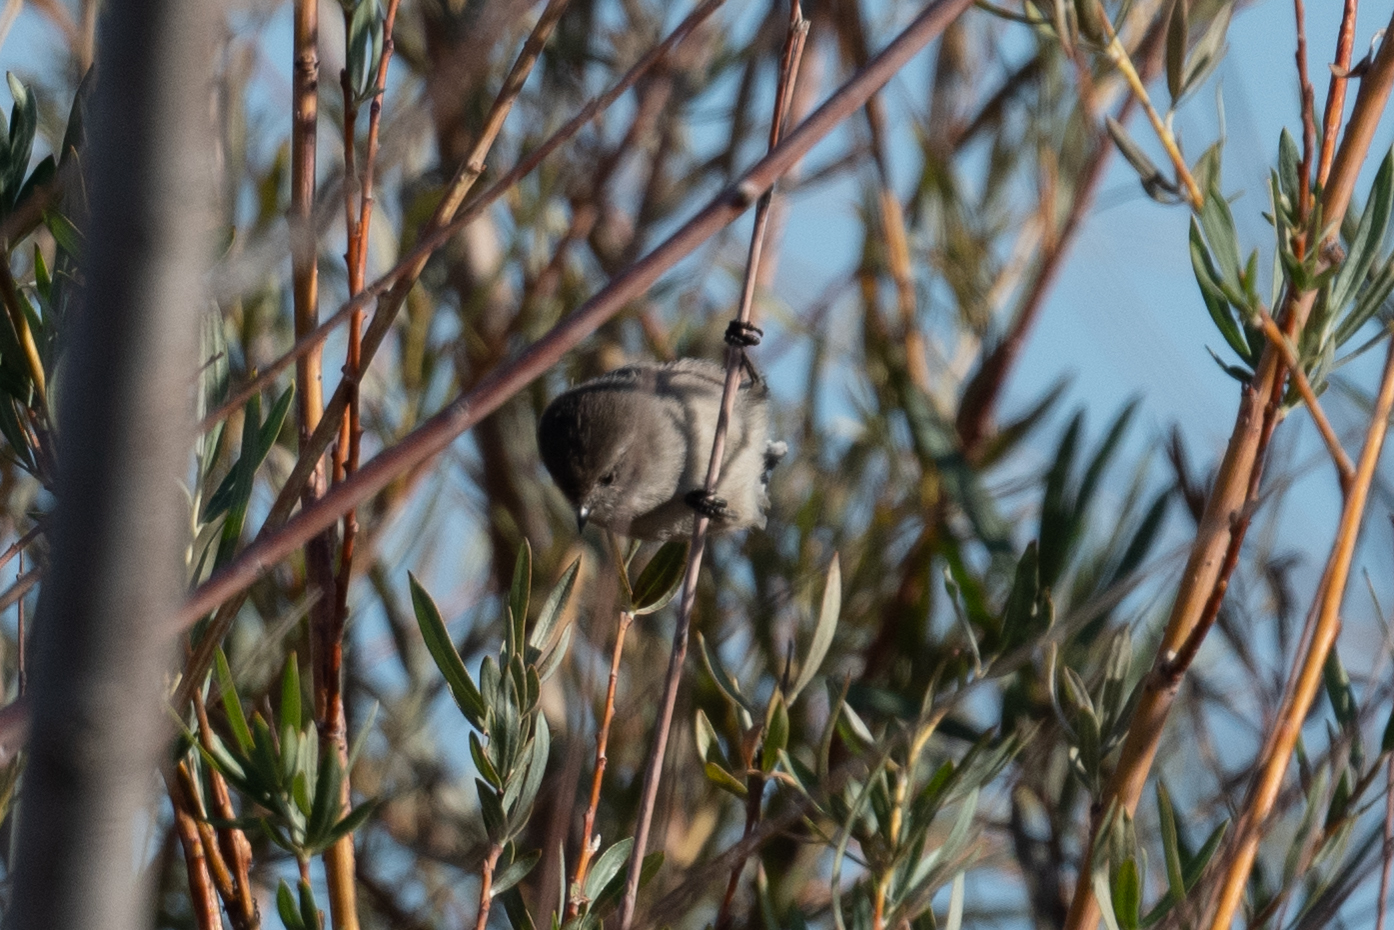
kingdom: Animalia
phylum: Chordata
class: Aves
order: Passeriformes
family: Aegithalidae
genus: Psaltriparus
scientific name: Psaltriparus minimus
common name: American bushtit
